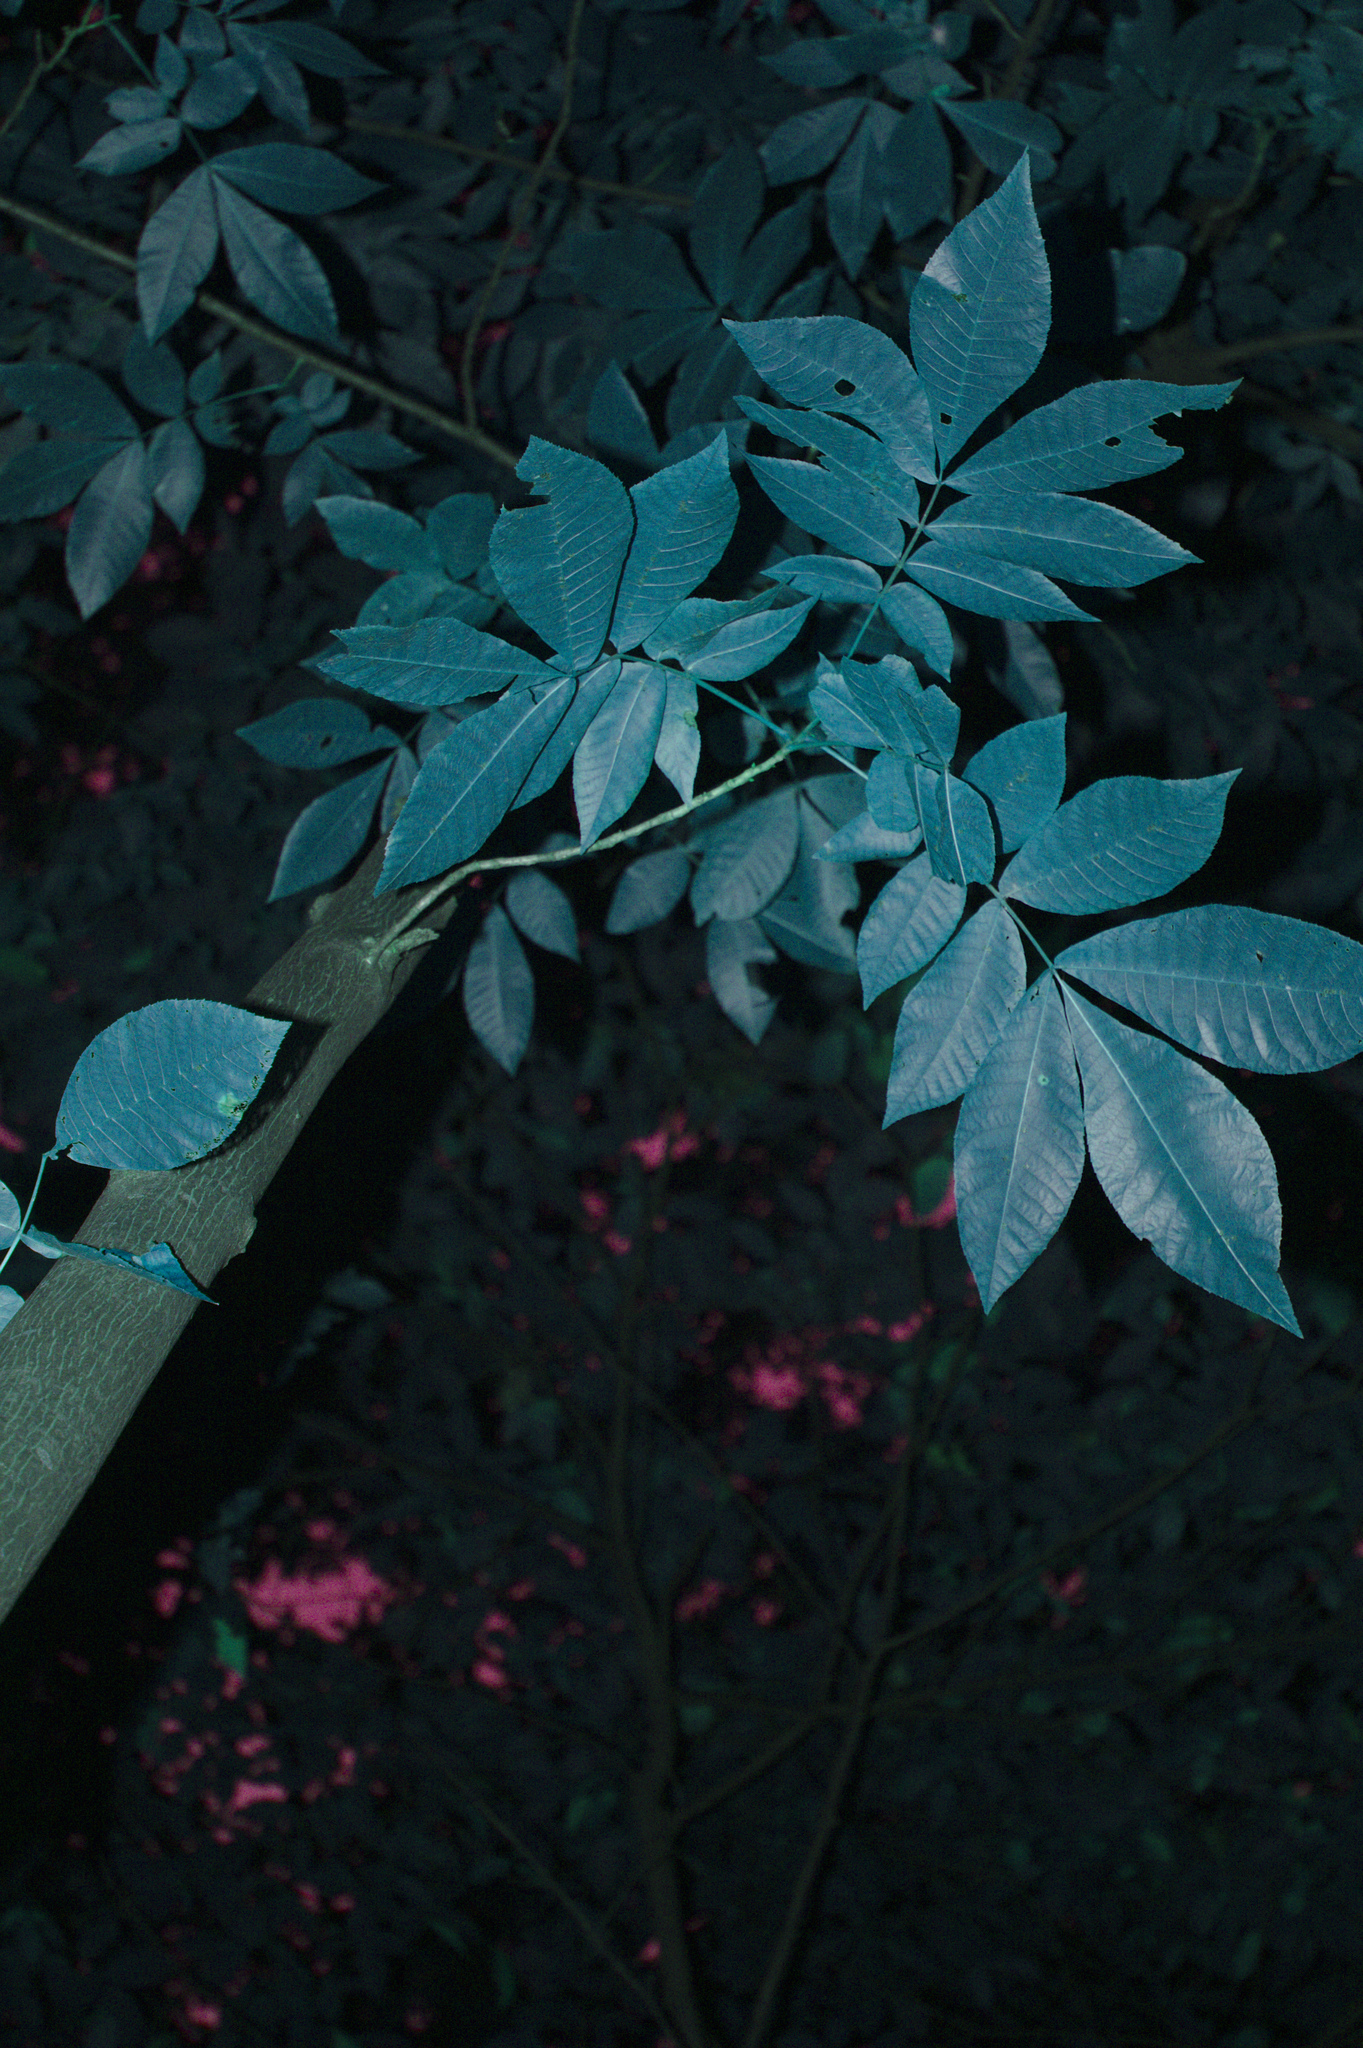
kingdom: Plantae
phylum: Tracheophyta
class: Magnoliopsida
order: Fagales
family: Juglandaceae
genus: Carya
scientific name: Carya cordiformis
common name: Bitternut hickory
